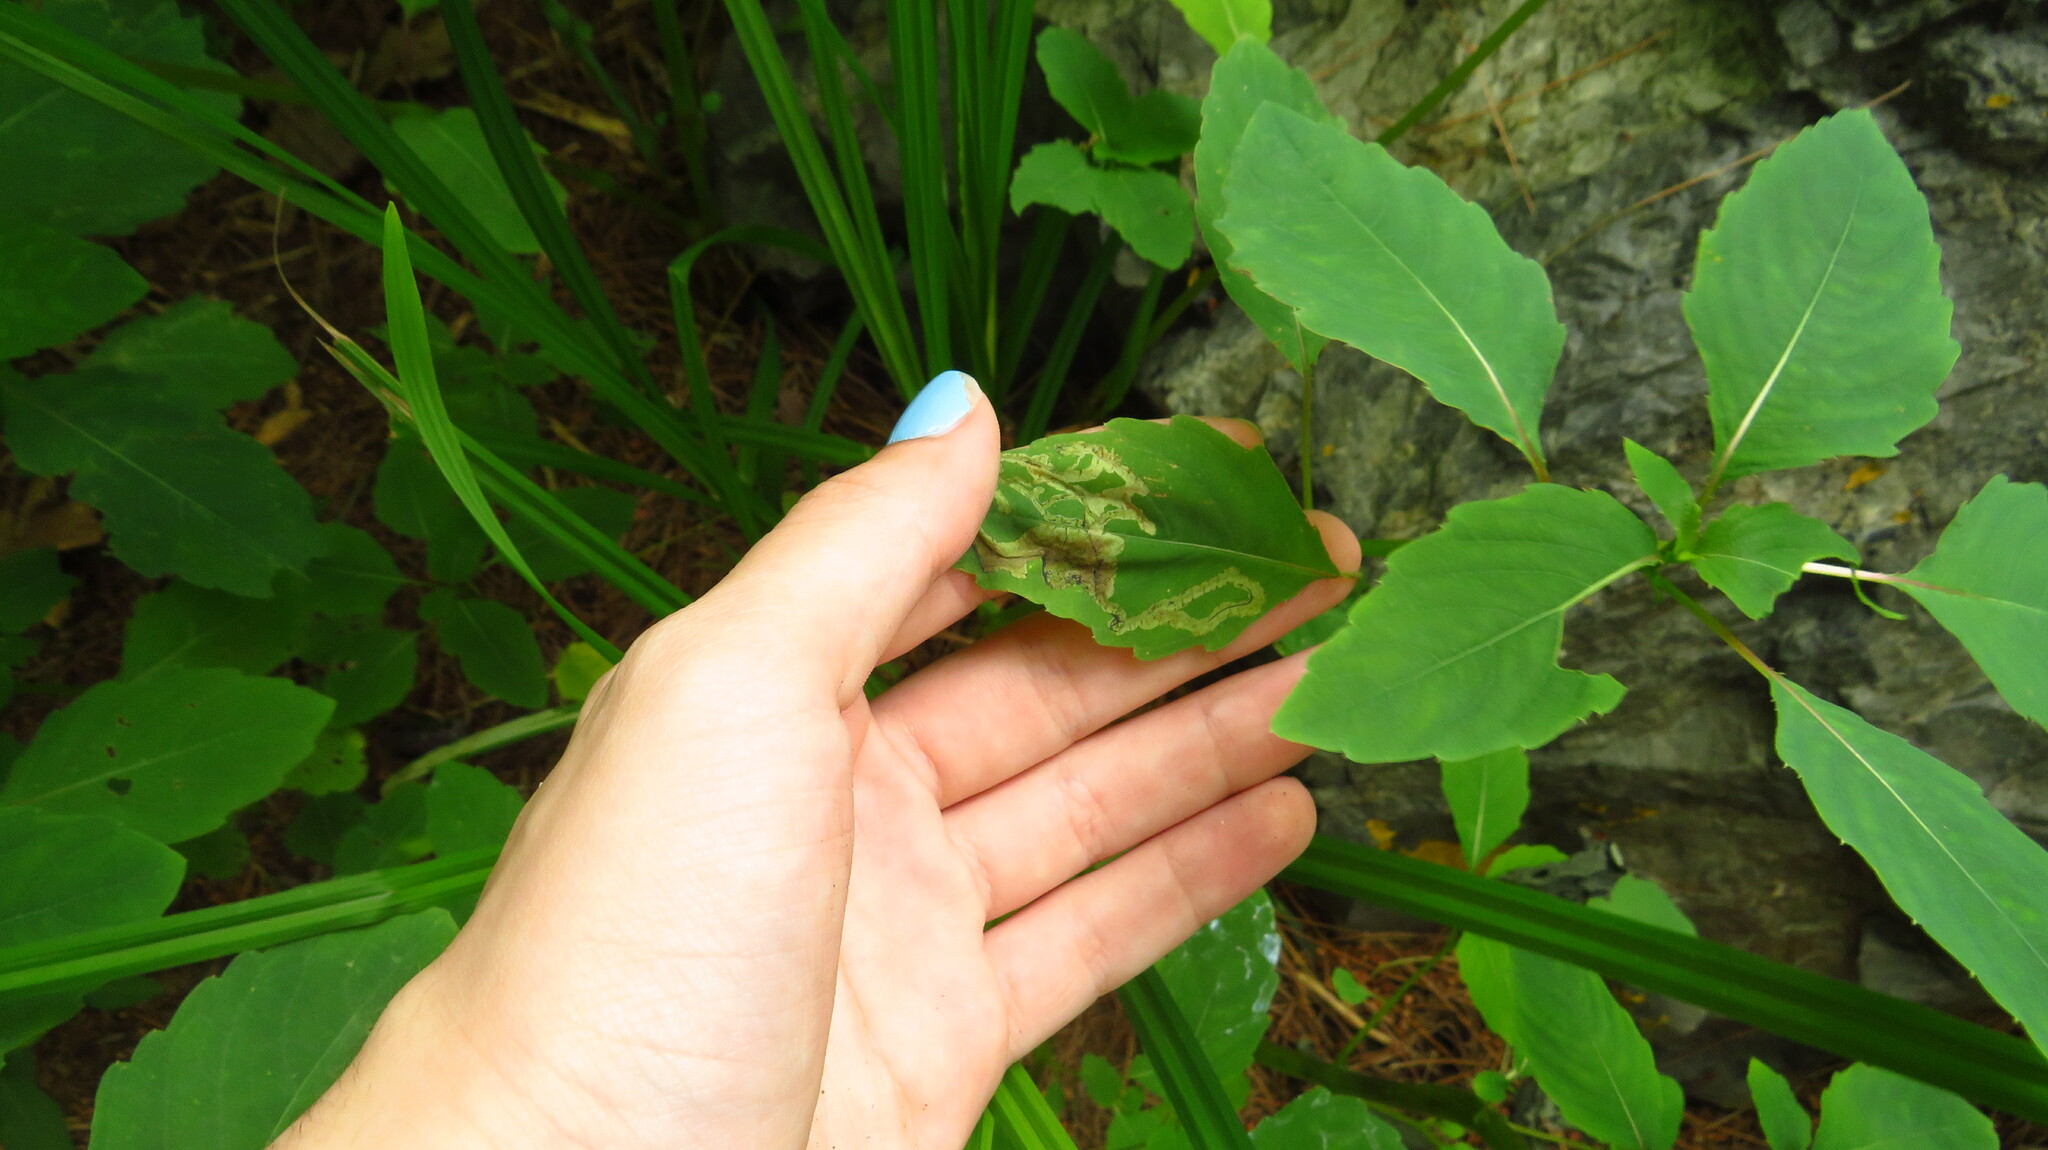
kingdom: Animalia
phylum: Arthropoda
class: Insecta
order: Diptera
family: Agromyzidae
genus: Phytoliriomyza
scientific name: Phytoliriomyza melampyga
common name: Jewelweed leaf-miner fly
